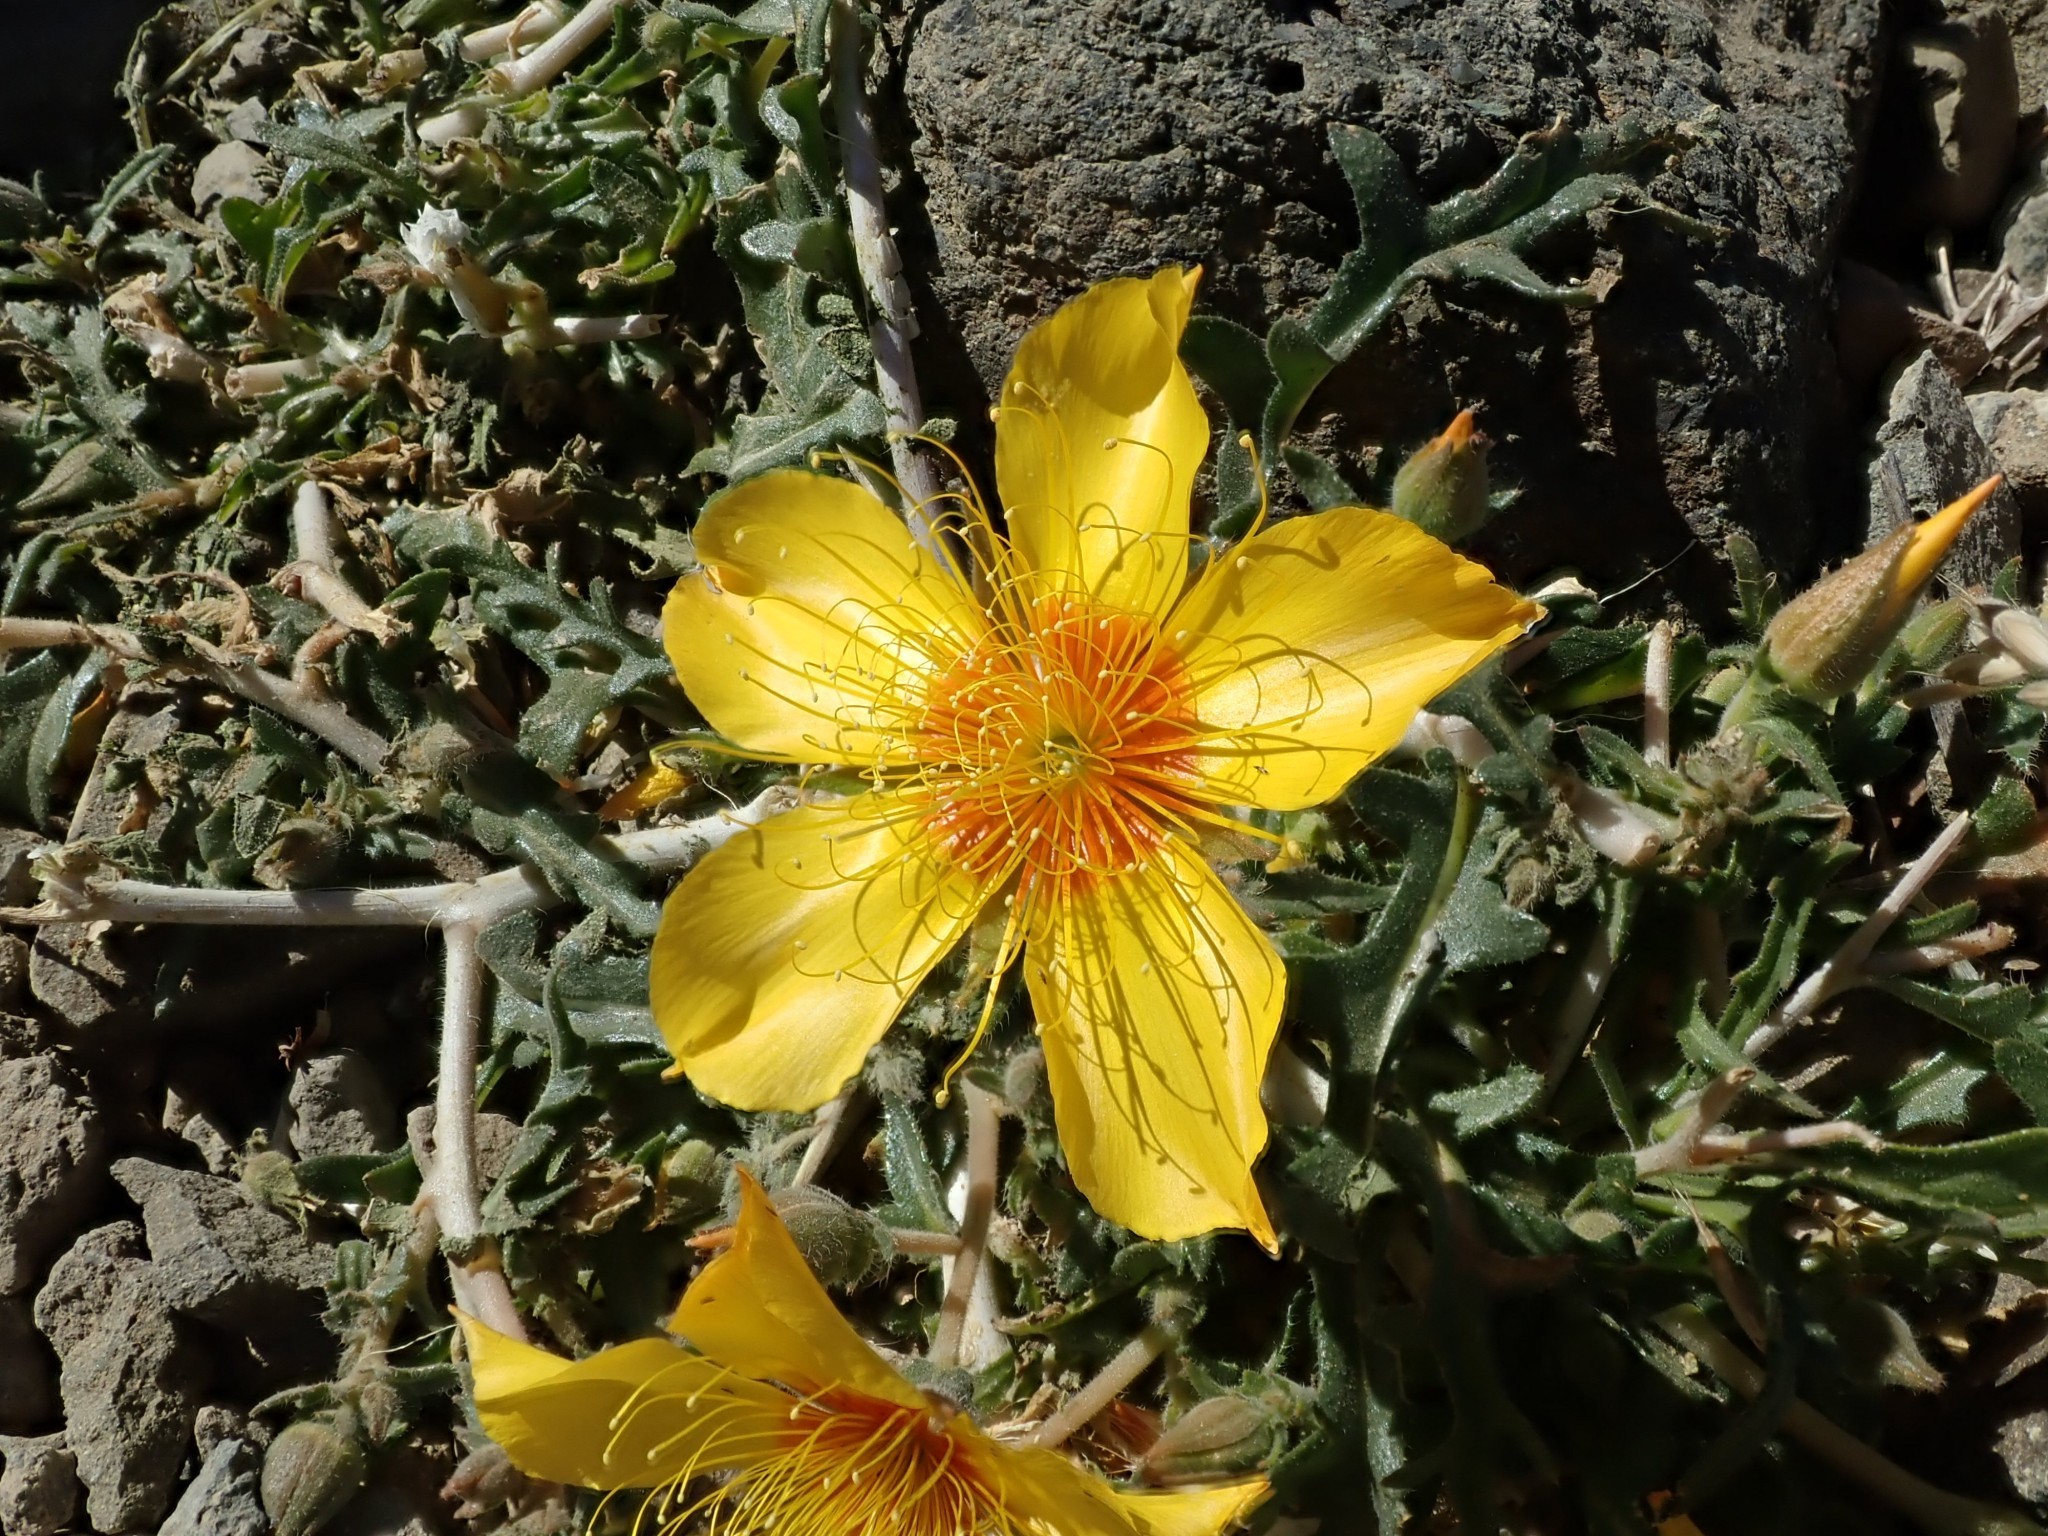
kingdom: Plantae
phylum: Tracheophyta
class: Magnoliopsida
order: Cornales
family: Loasaceae
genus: Mentzelia
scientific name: Mentzelia lindleyi
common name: Golden bartonia
